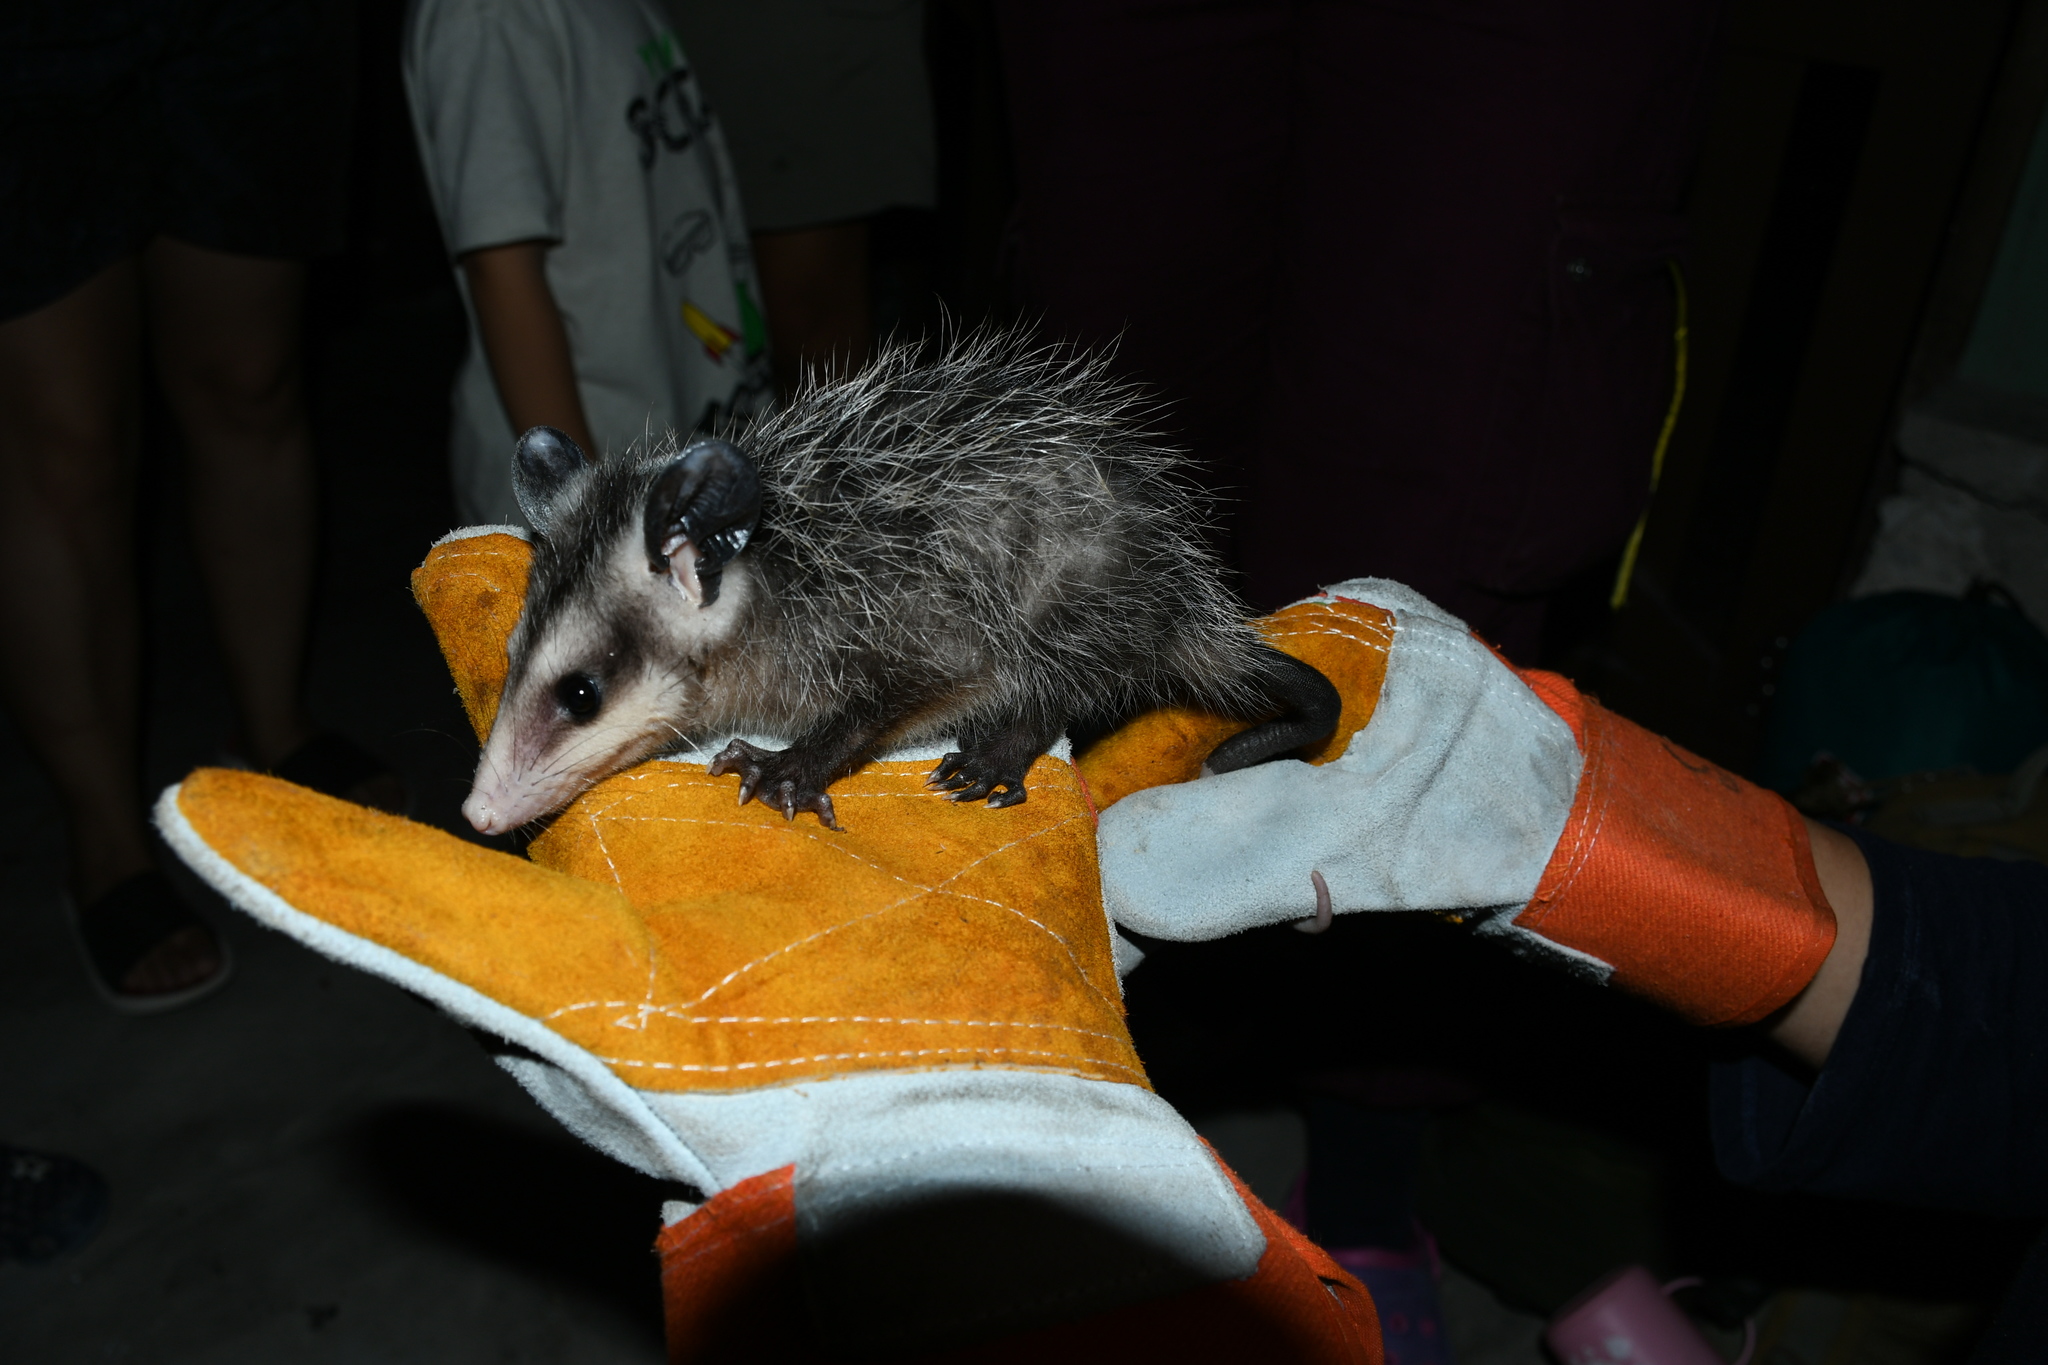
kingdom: Animalia
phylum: Chordata
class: Mammalia
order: Didelphimorphia
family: Didelphidae
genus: Didelphis
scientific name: Didelphis
